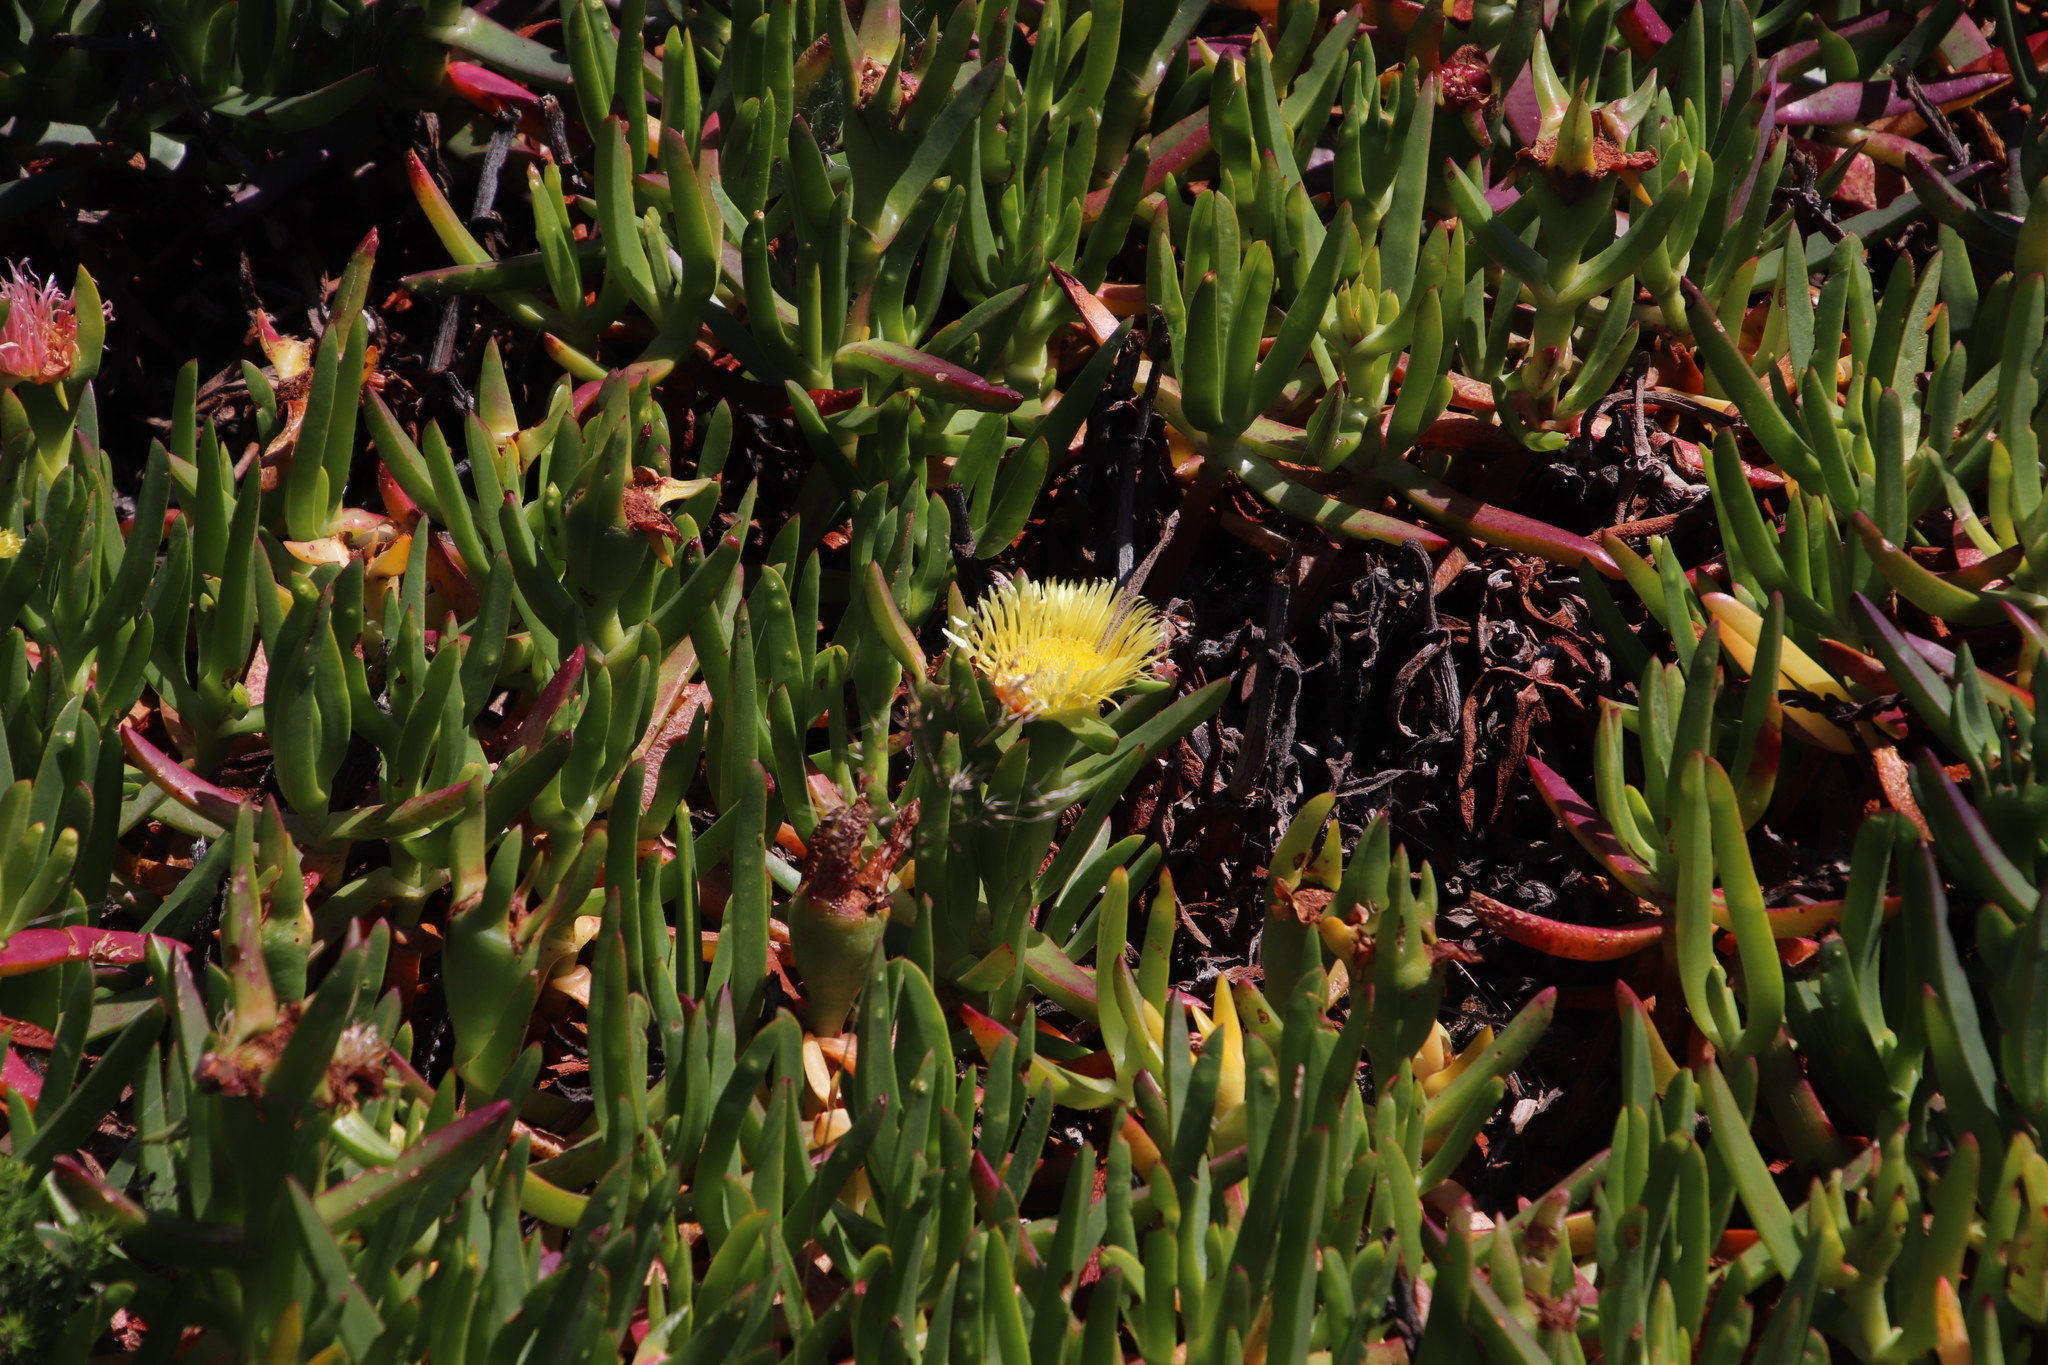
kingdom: Plantae
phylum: Tracheophyta
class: Magnoliopsida
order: Caryophyllales
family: Aizoaceae
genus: Carpobrotus
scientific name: Carpobrotus edulis
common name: Hottentot-fig
